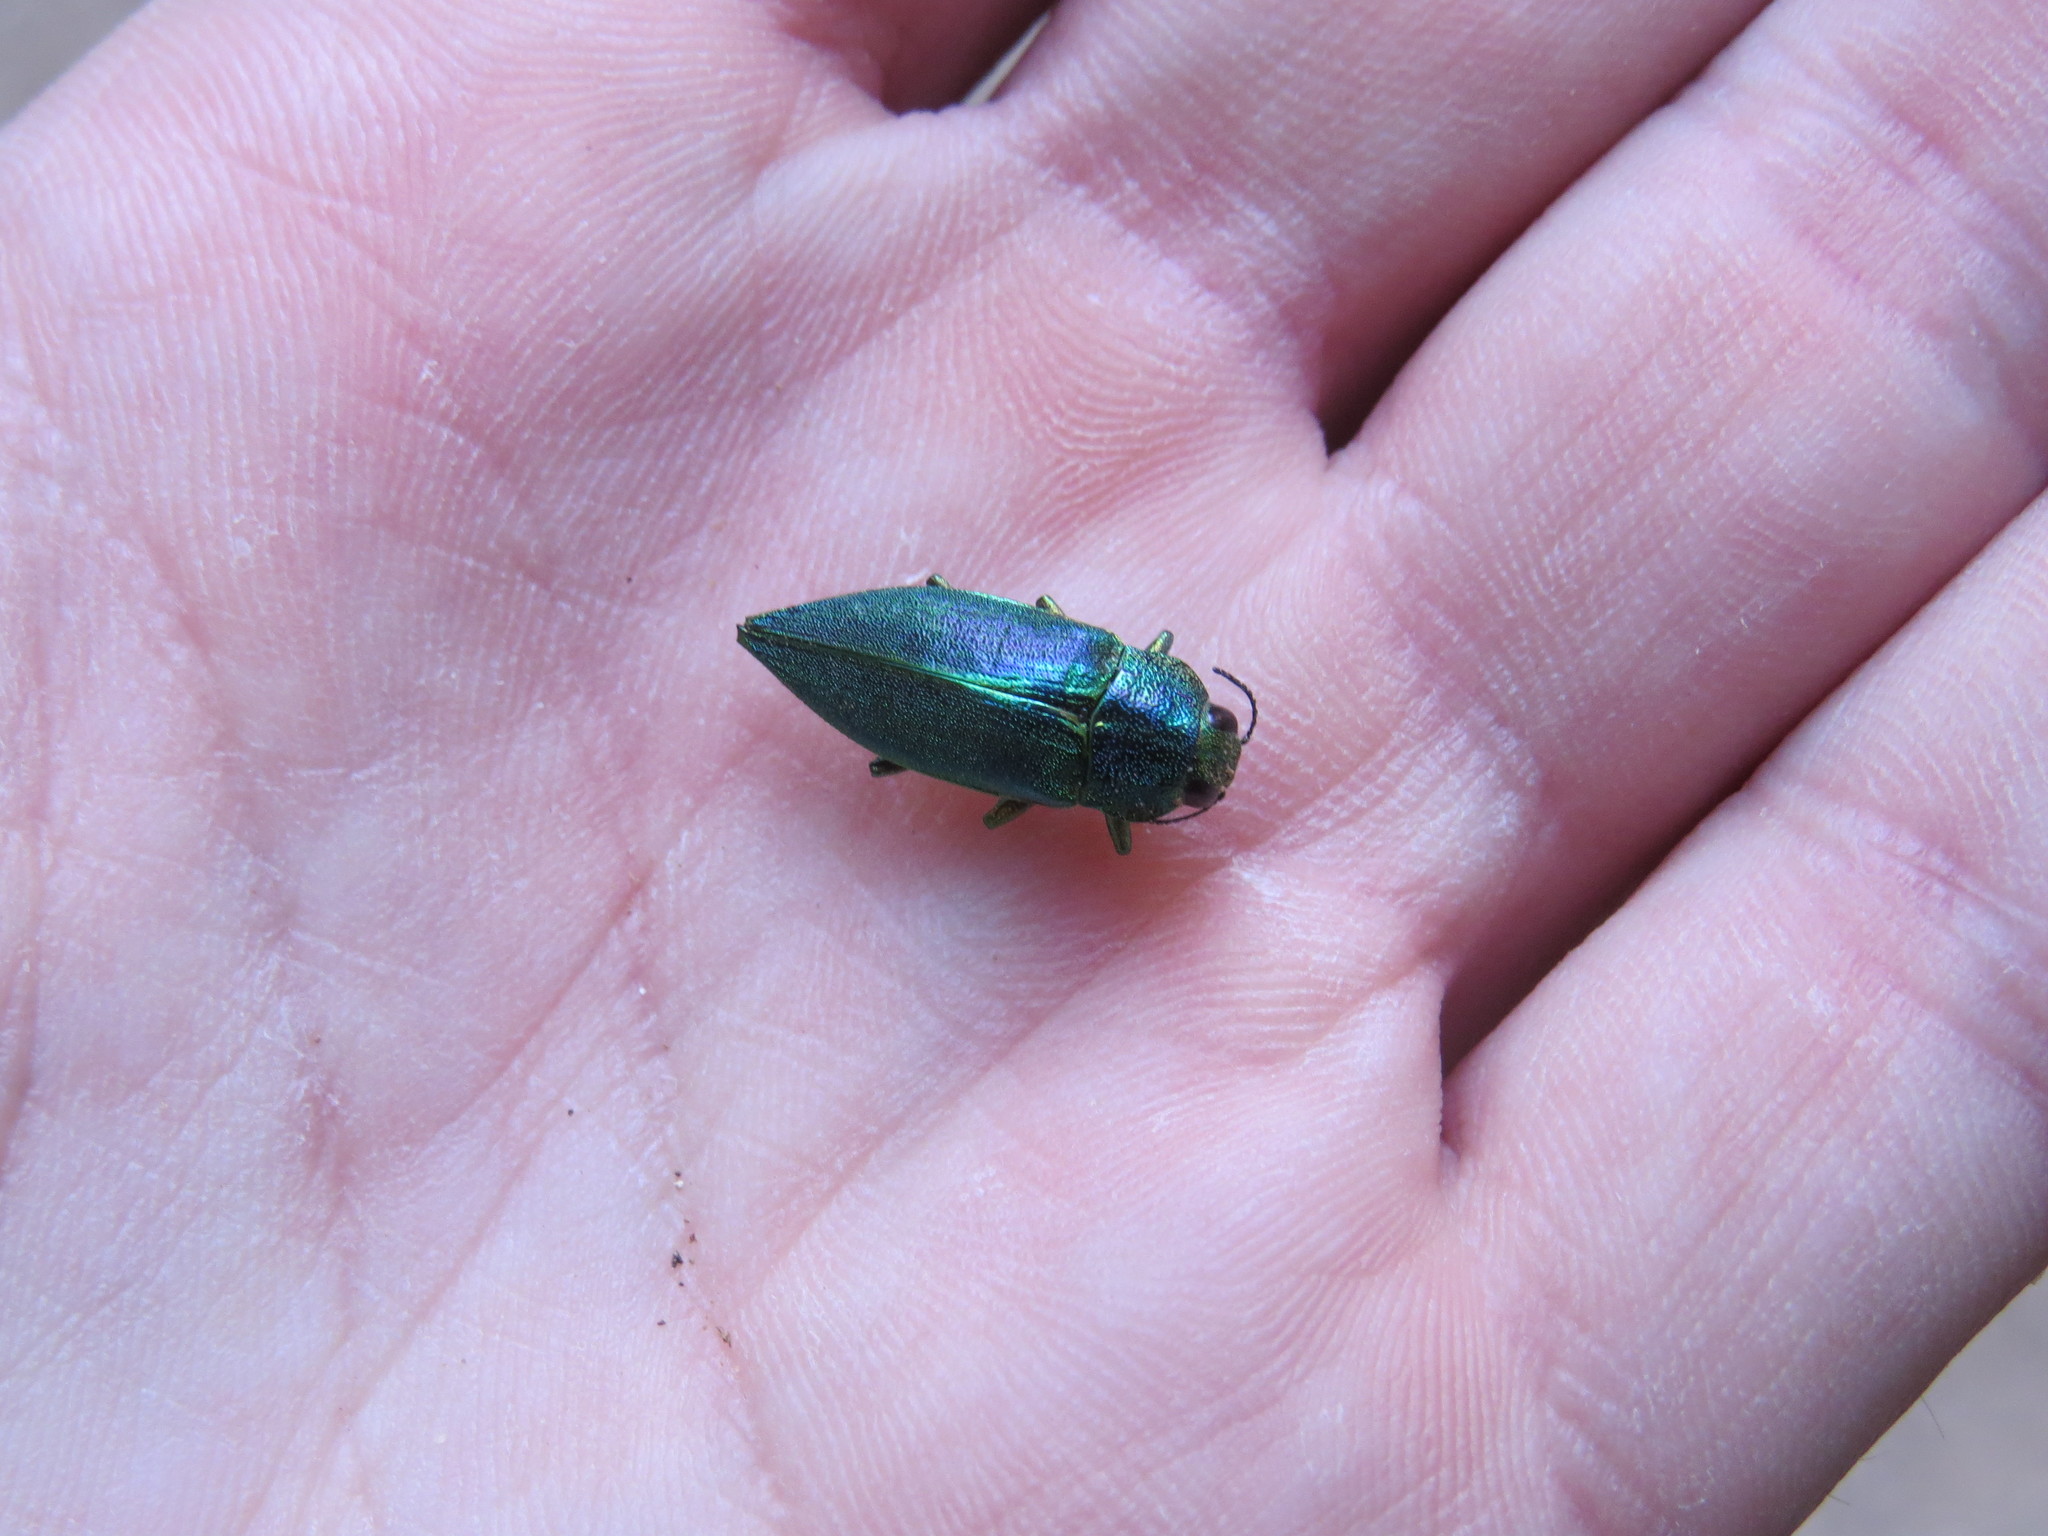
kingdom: Animalia
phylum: Arthropoda
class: Insecta
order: Coleoptera
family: Buprestidae
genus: Latipalpis
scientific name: Latipalpis plana
